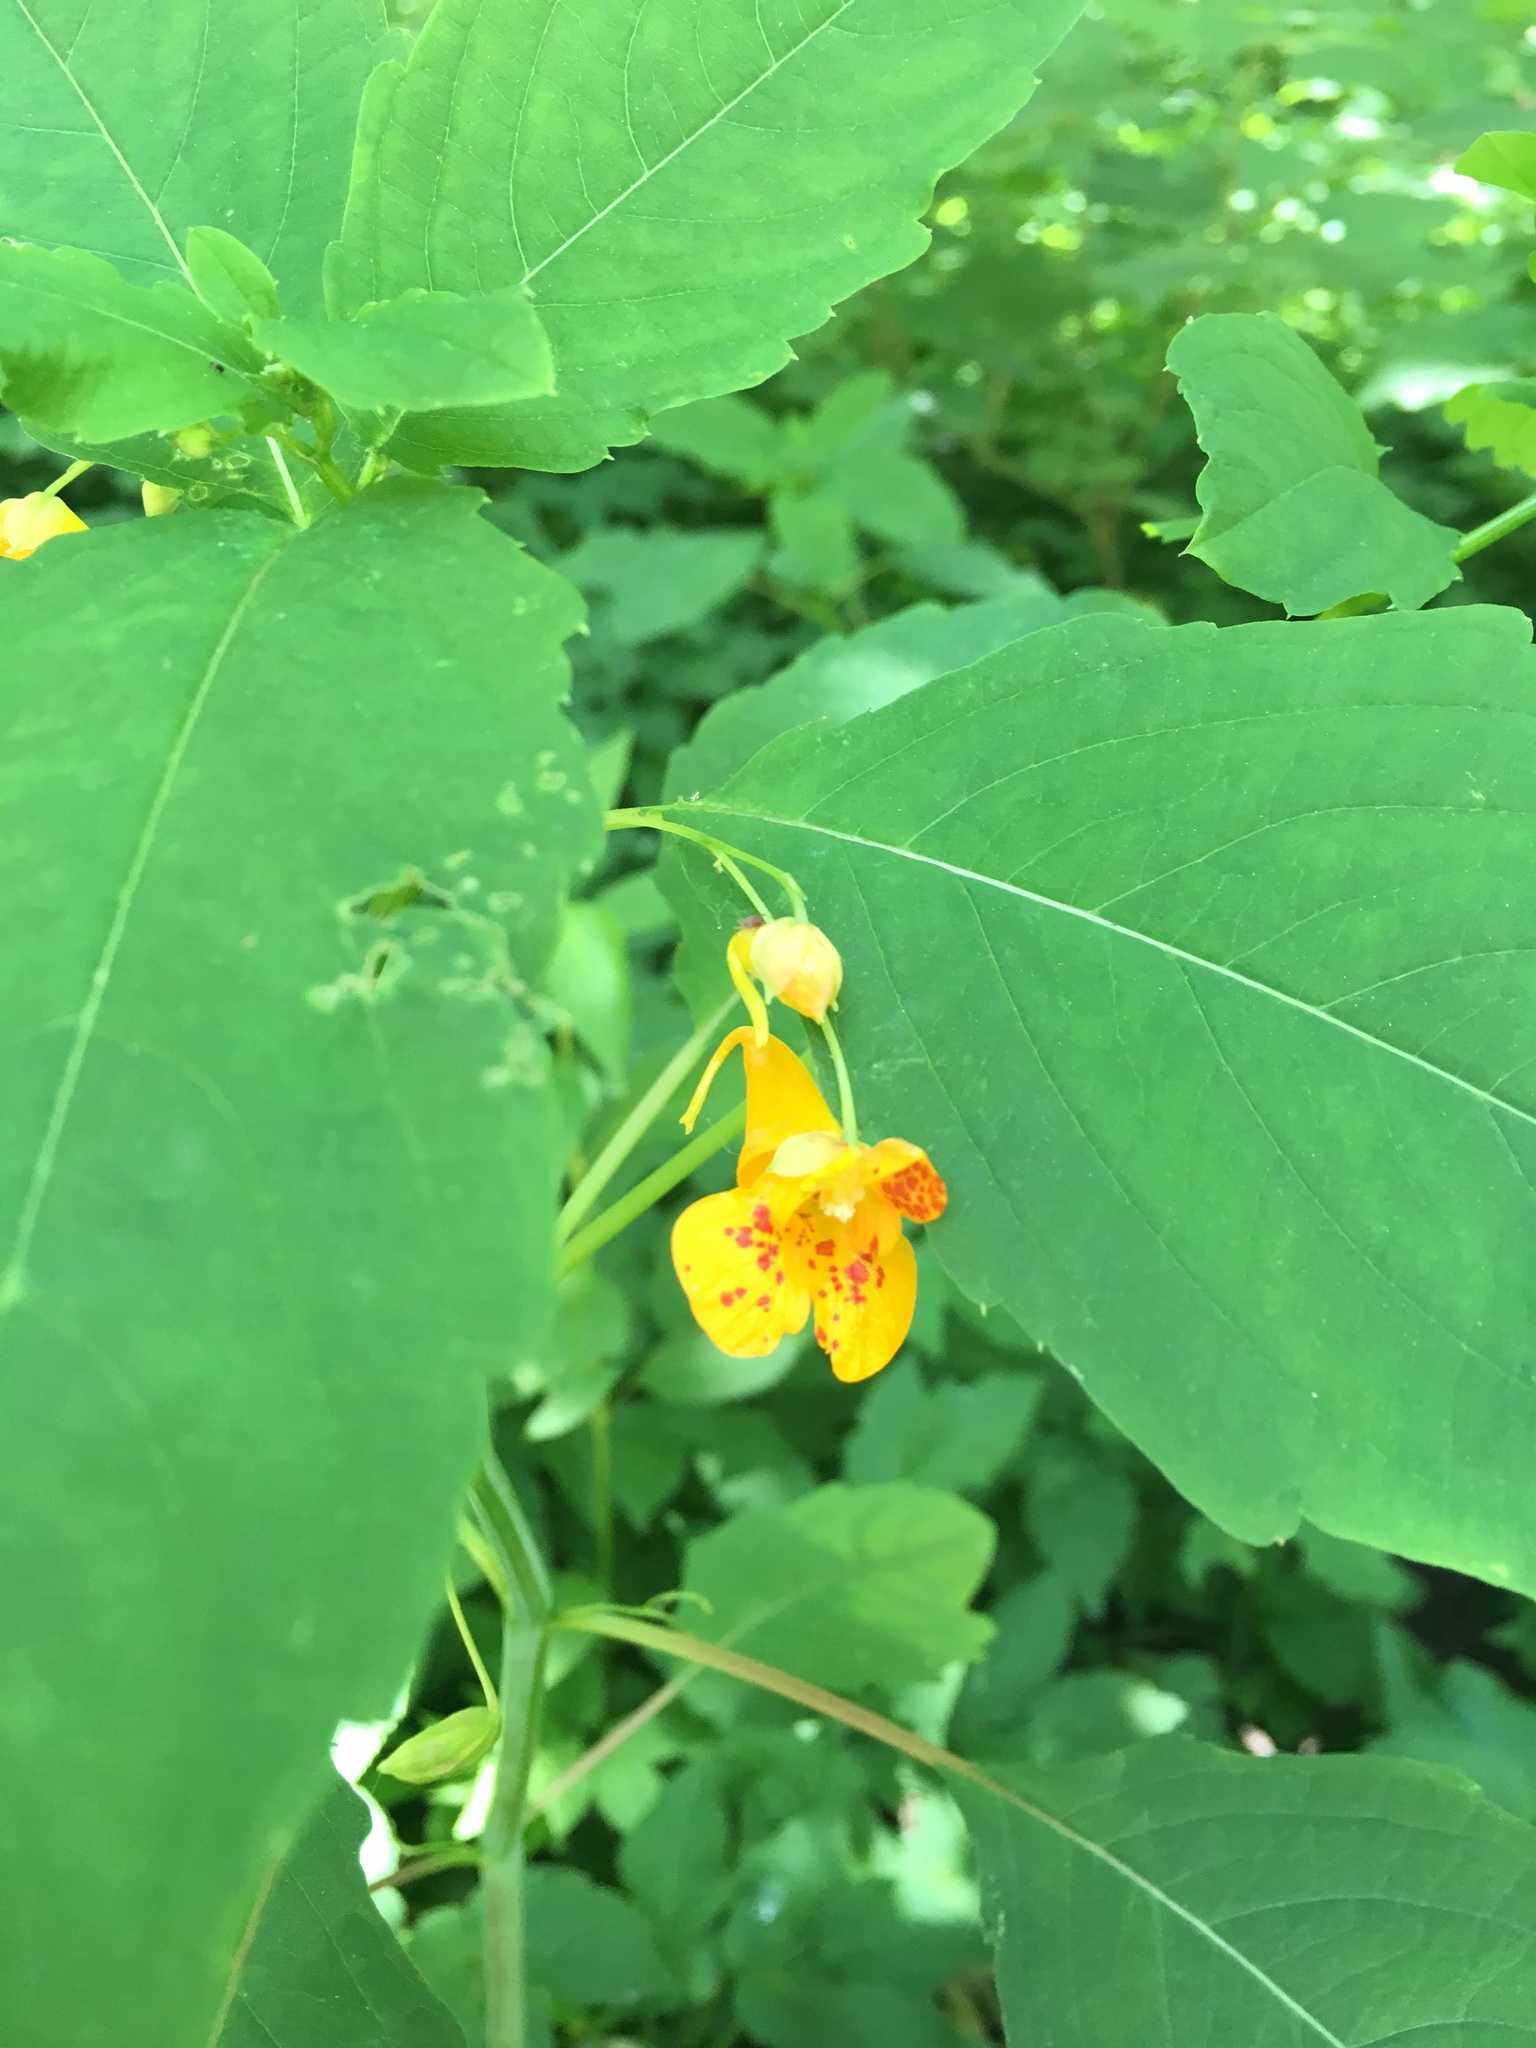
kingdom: Plantae
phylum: Tracheophyta
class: Magnoliopsida
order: Ericales
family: Balsaminaceae
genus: Impatiens
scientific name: Impatiens capensis
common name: Orange balsam
